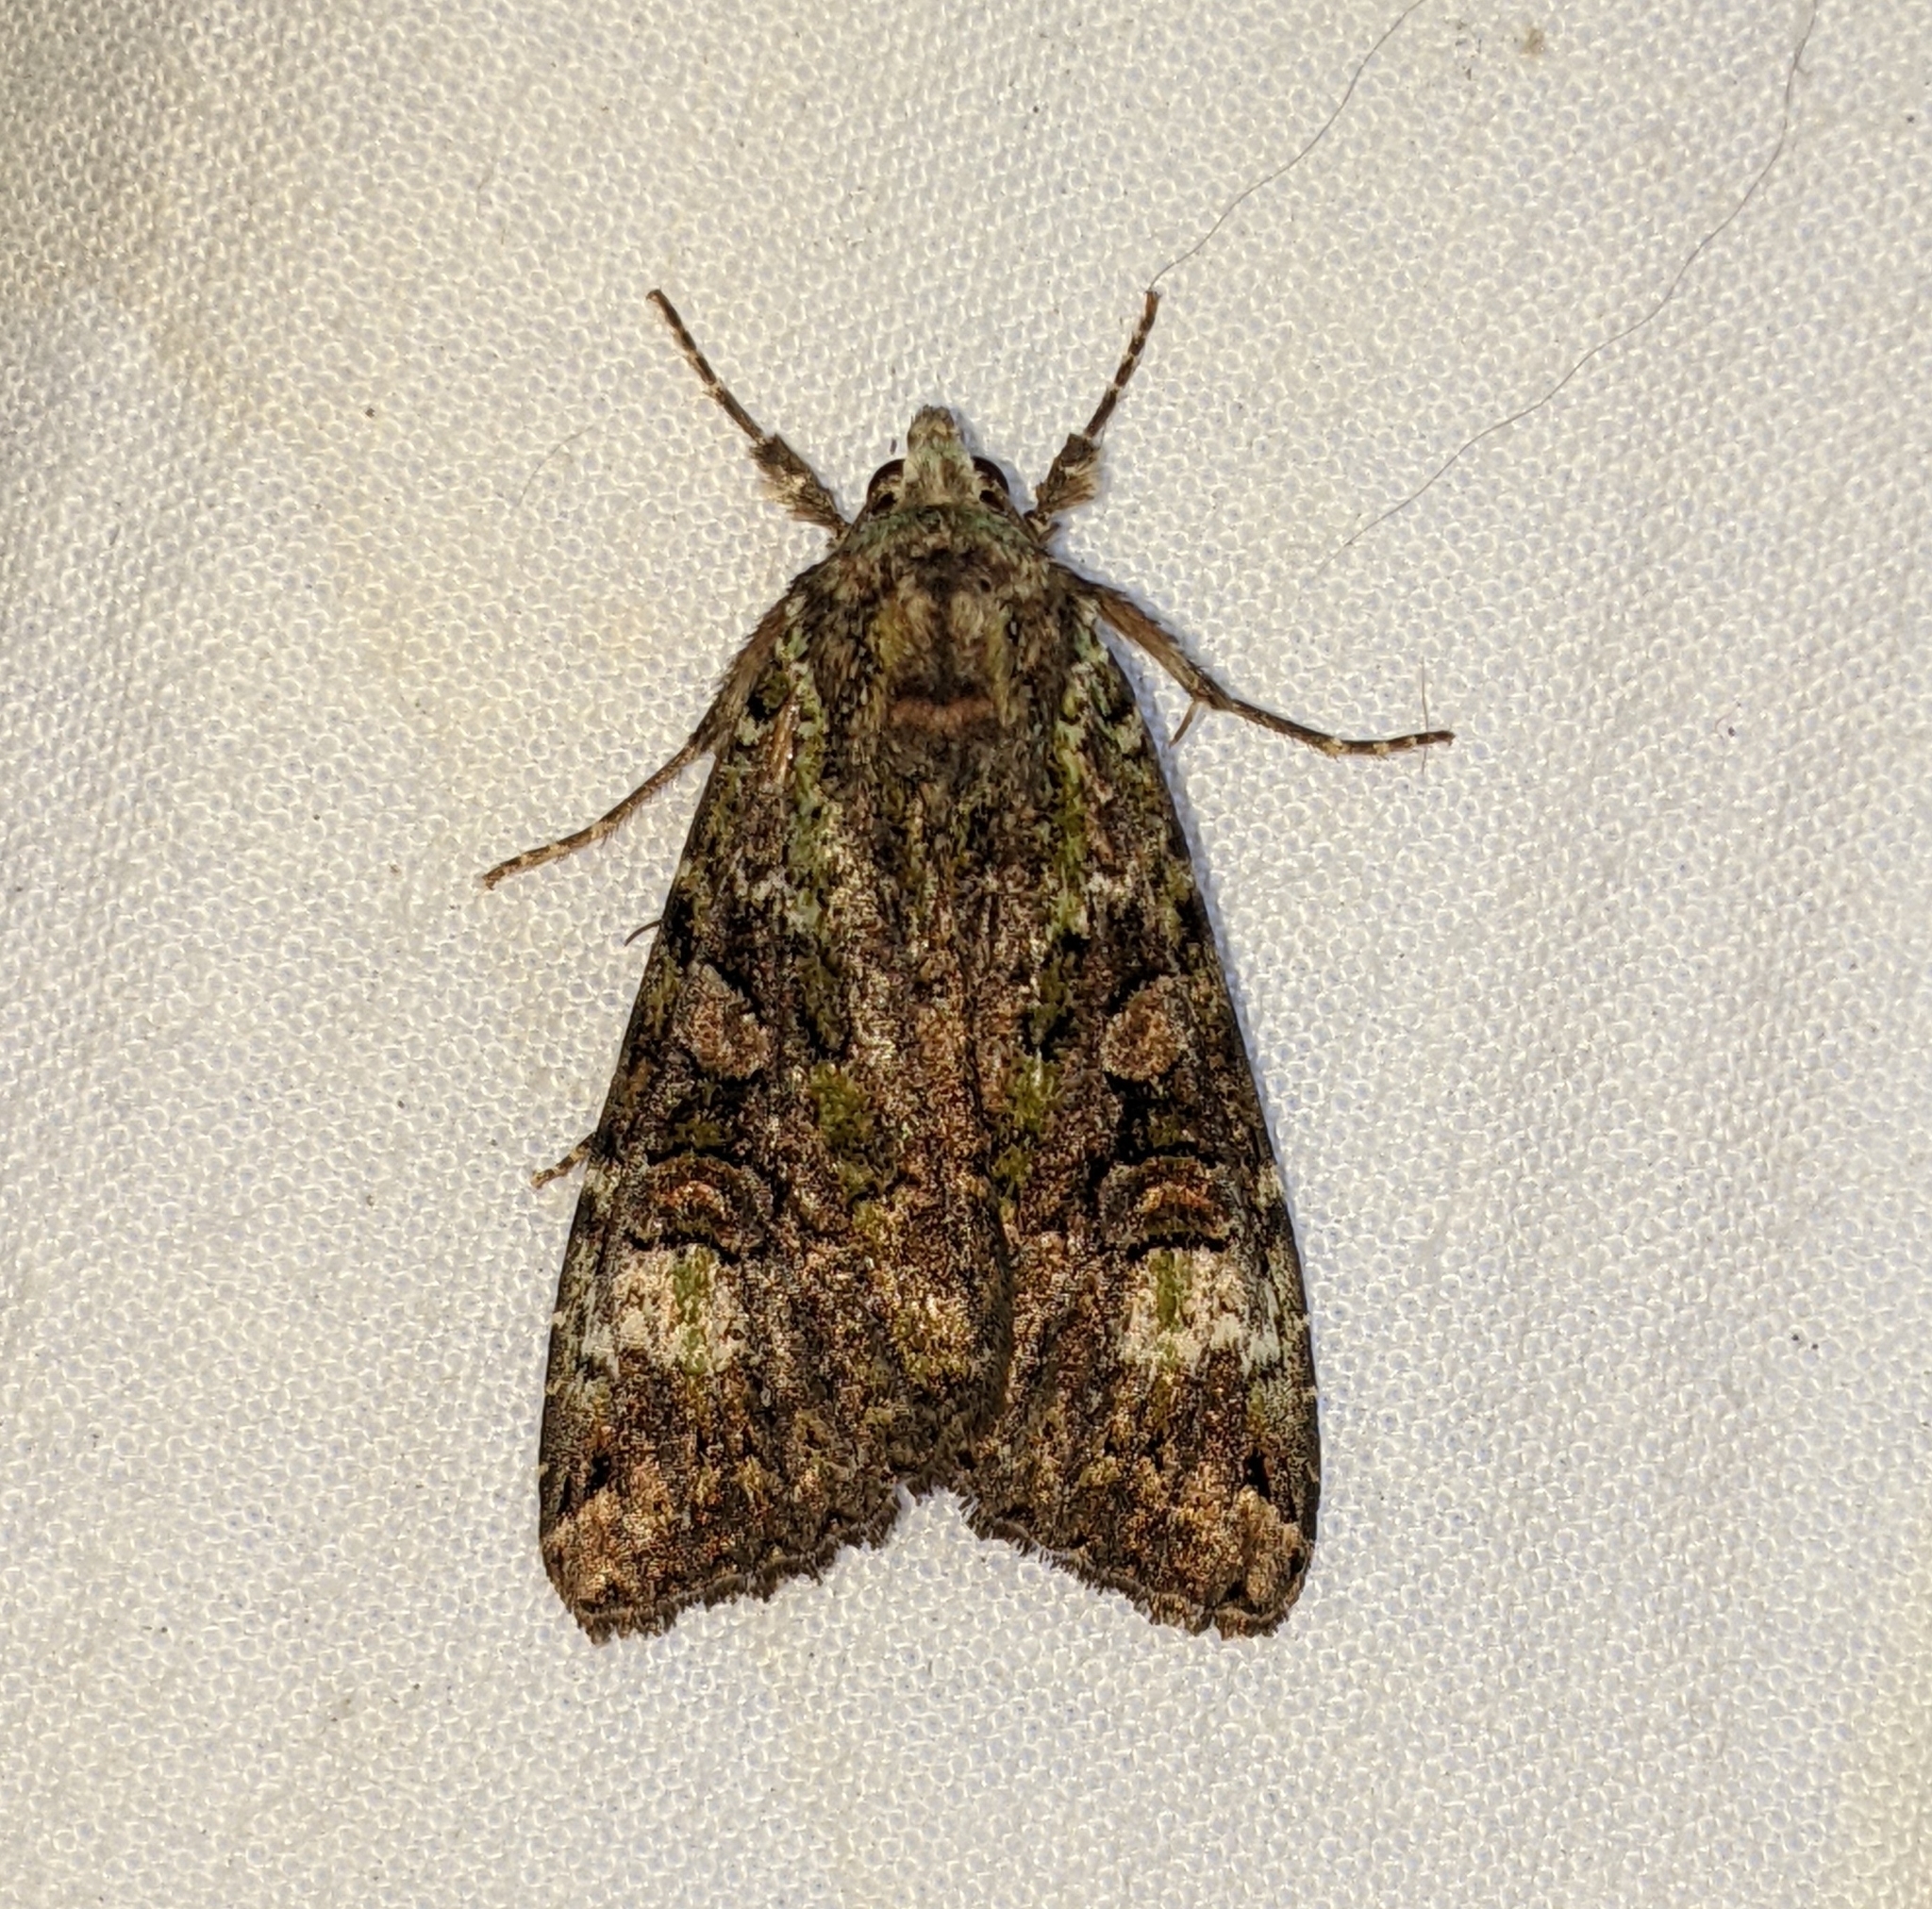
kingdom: Animalia
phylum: Arthropoda
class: Insecta
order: Lepidoptera
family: Noctuidae
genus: Anaplectoides
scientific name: Anaplectoides prasina
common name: Green arches
